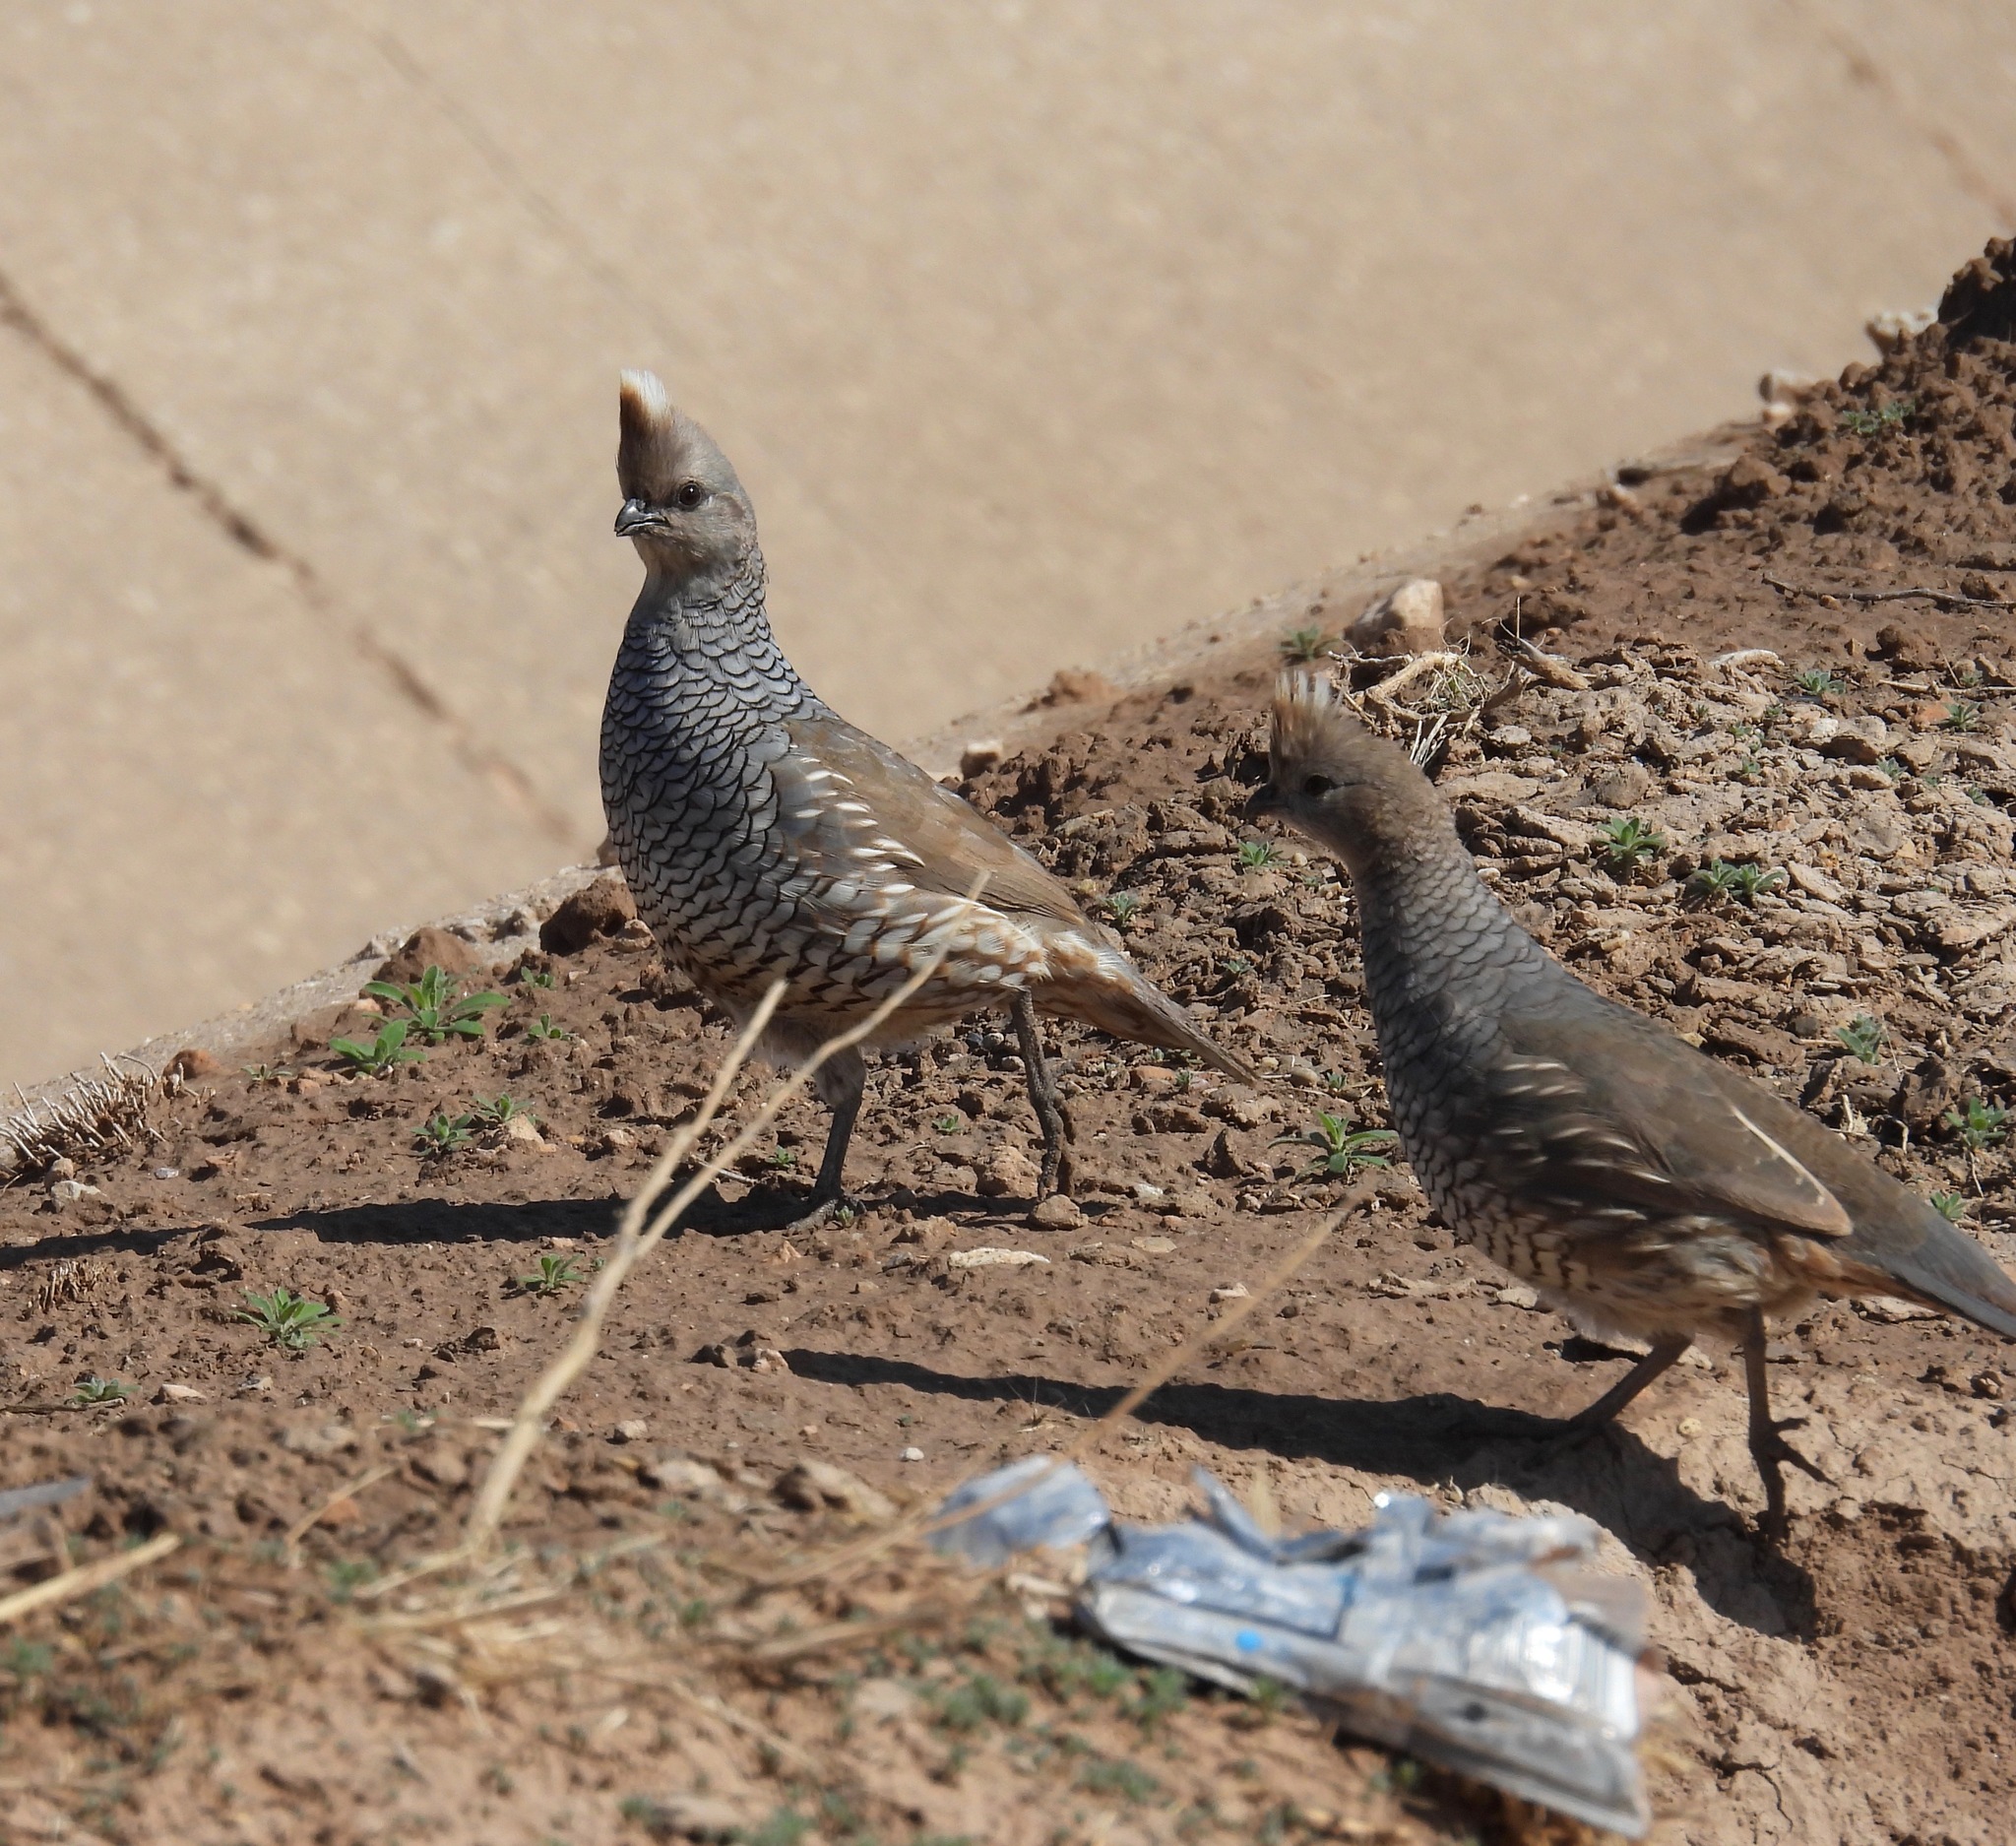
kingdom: Animalia
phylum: Chordata
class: Aves
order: Galliformes
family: Odontophoridae
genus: Callipepla
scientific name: Callipepla squamata
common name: Scaled quail
